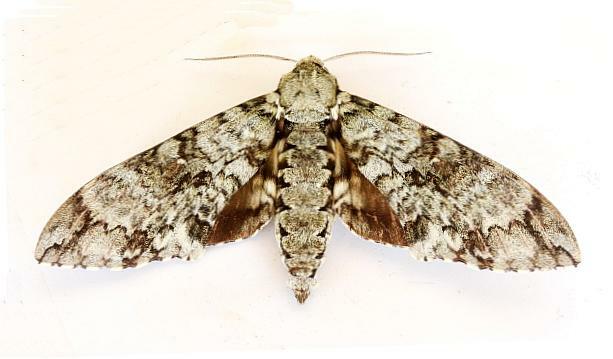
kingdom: Animalia
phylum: Arthropoda
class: Insecta
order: Lepidoptera
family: Sphingidae
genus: Manduca
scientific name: Manduca florestan
